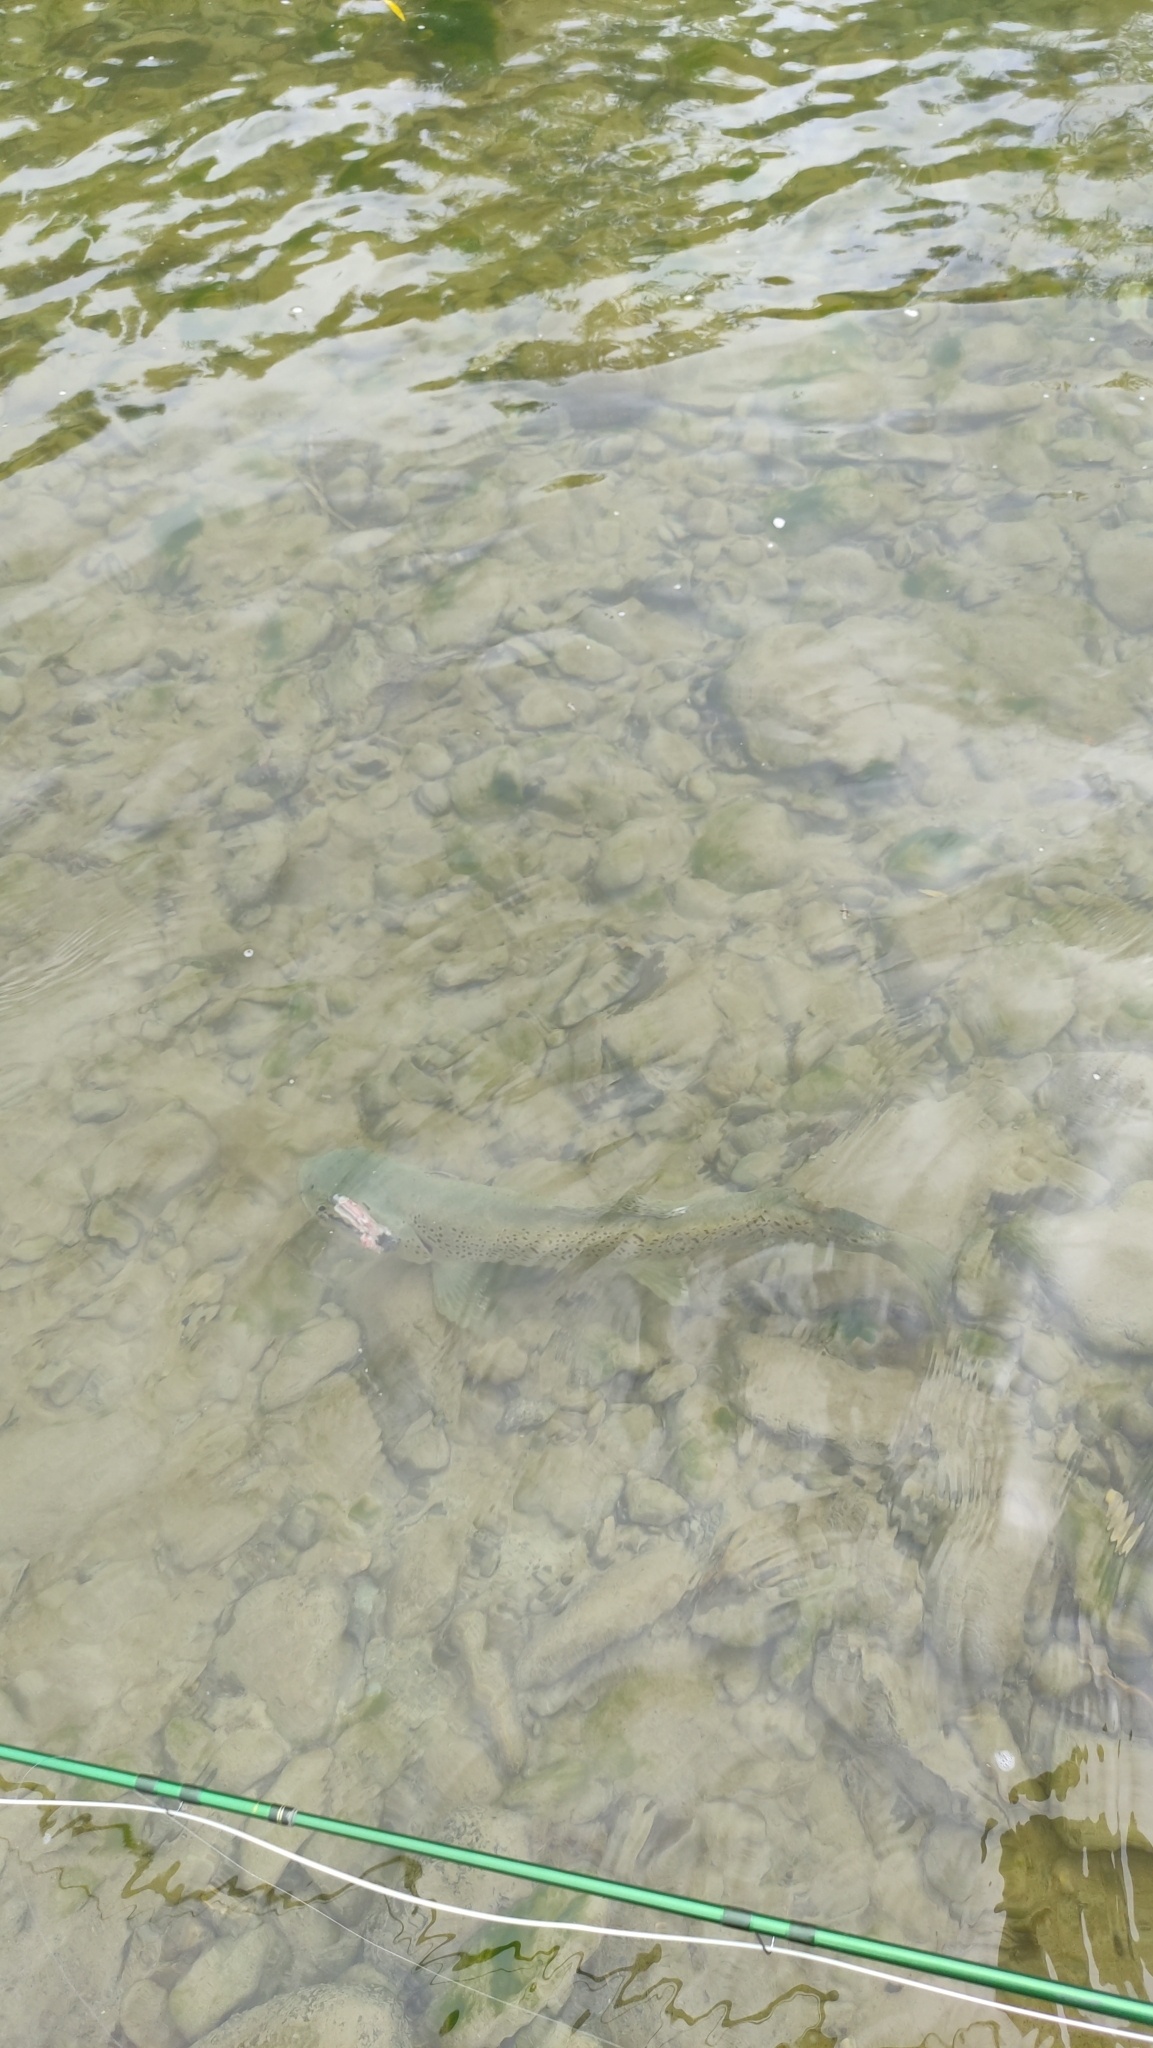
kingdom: Animalia
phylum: Chordata
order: Salmoniformes
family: Salmonidae
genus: Salmo
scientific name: Salmo trutta
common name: Brown trout
